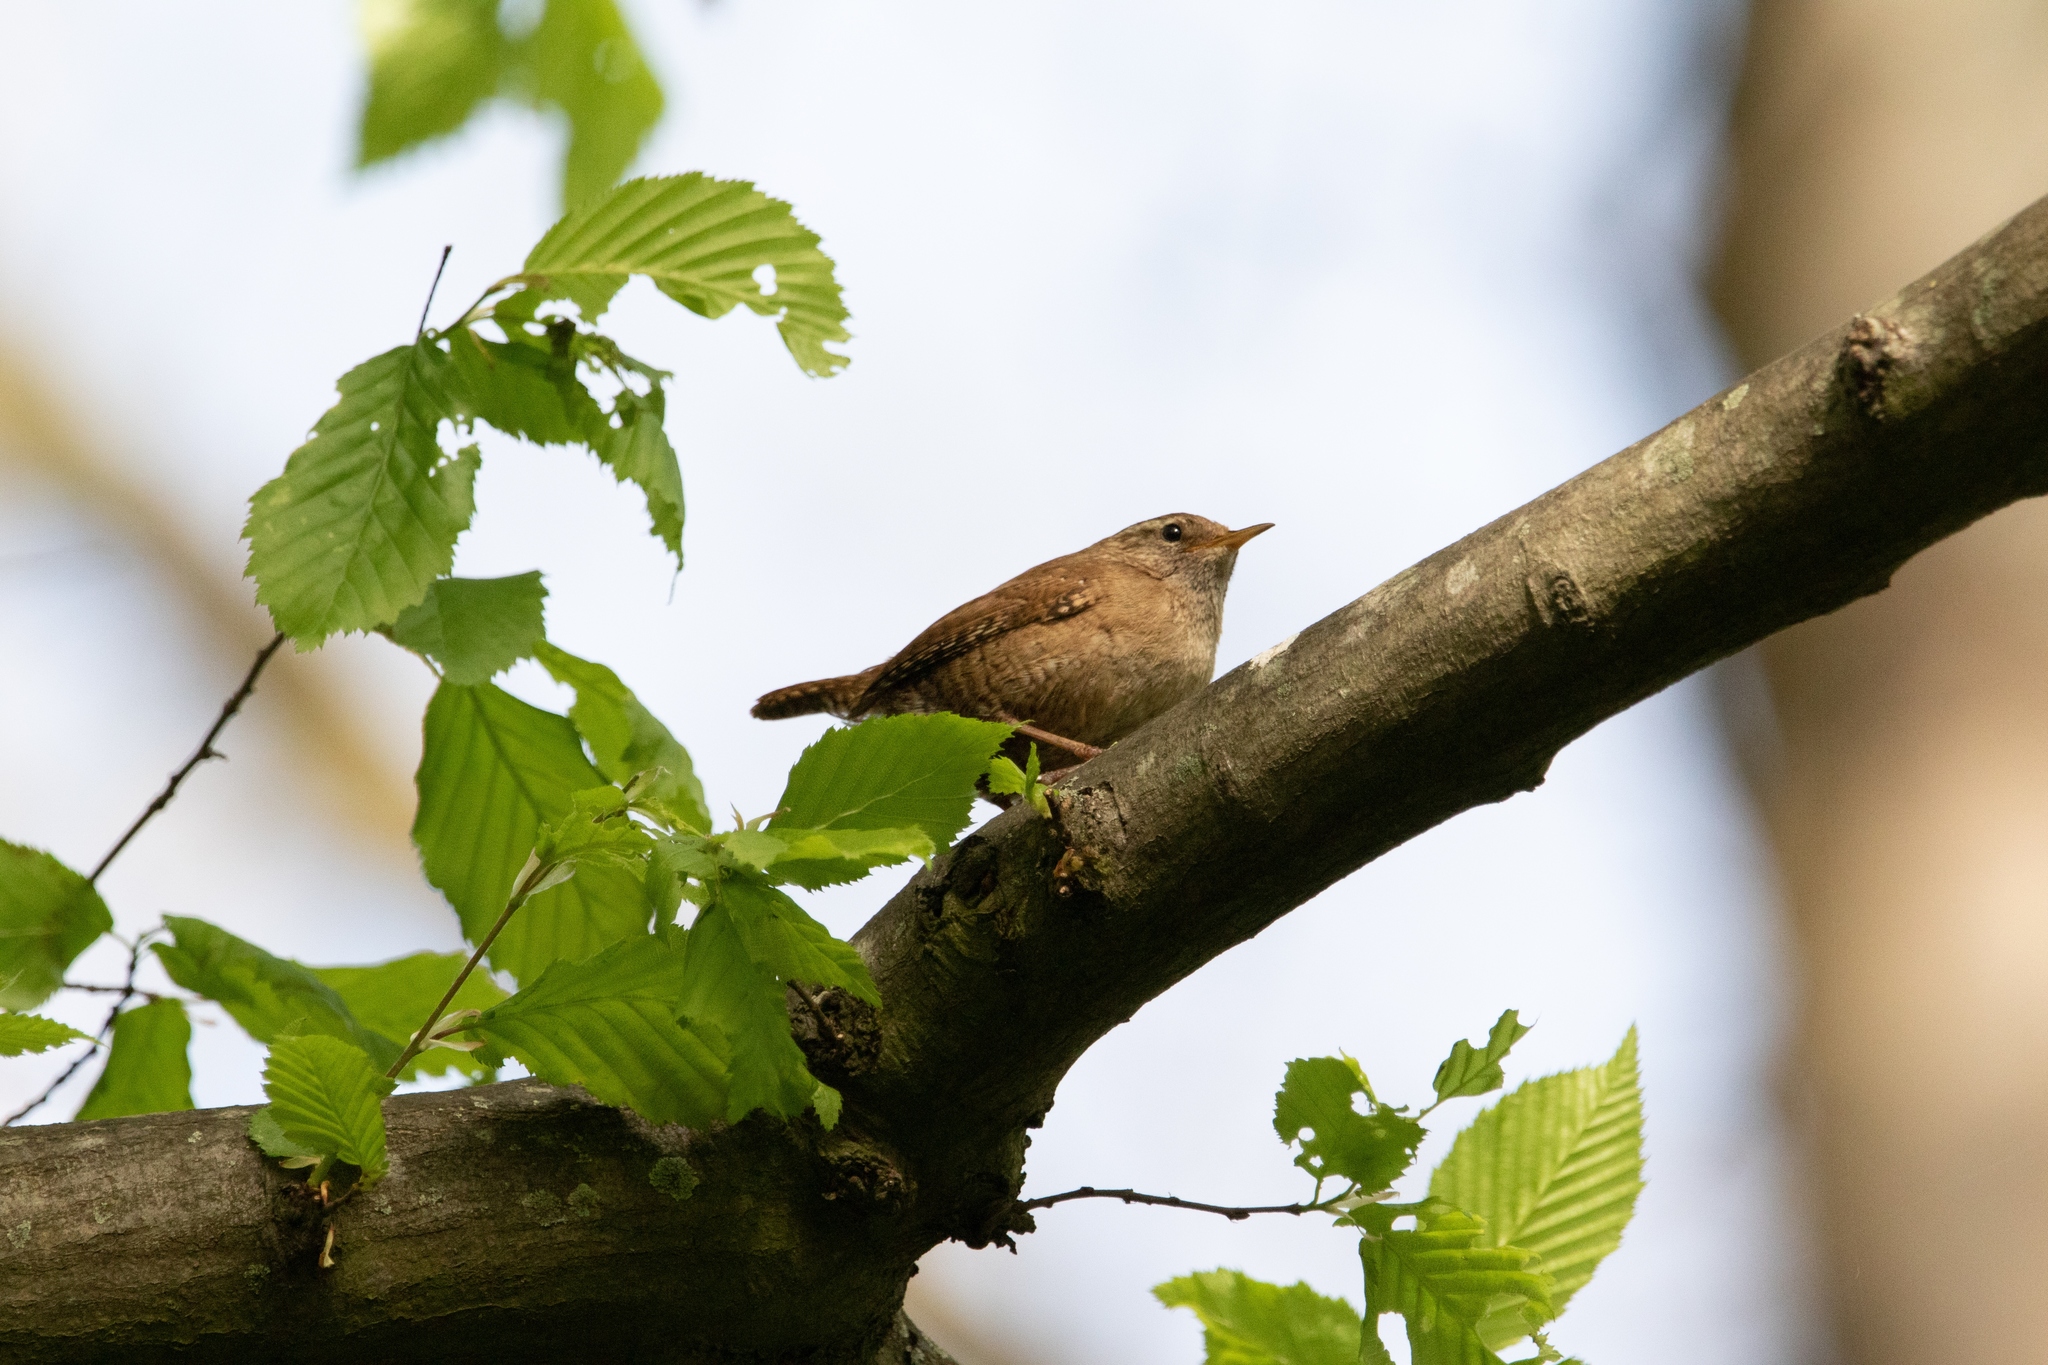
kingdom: Animalia
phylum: Chordata
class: Aves
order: Passeriformes
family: Troglodytidae
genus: Troglodytes
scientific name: Troglodytes troglodytes
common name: Eurasian wren
